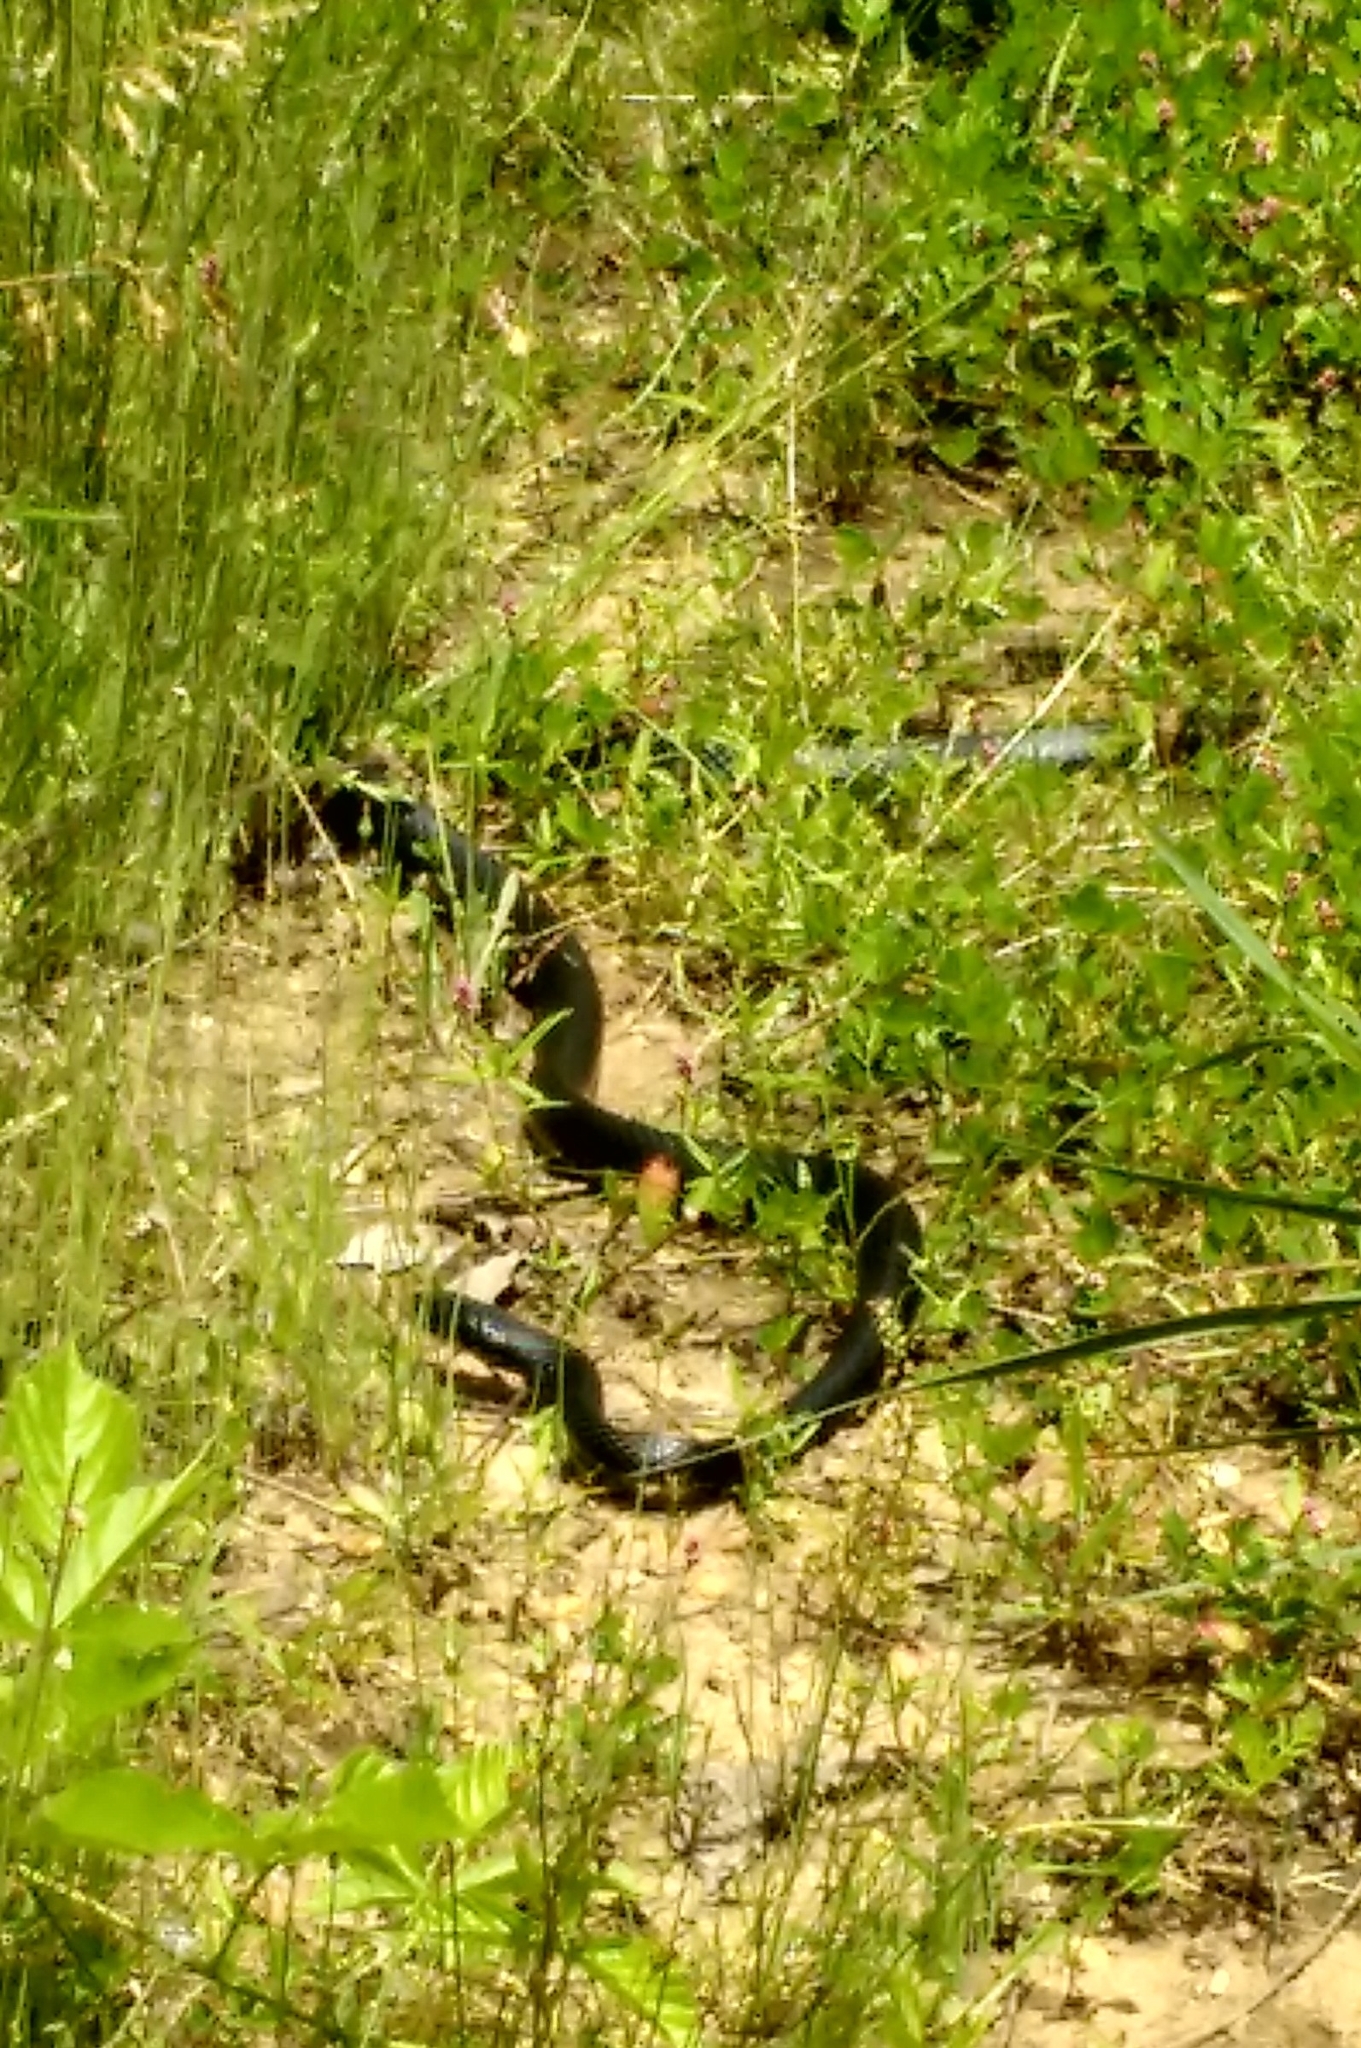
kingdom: Animalia
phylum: Chordata
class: Squamata
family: Colubridae
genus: Coluber
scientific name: Coluber constrictor
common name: Eastern racer
